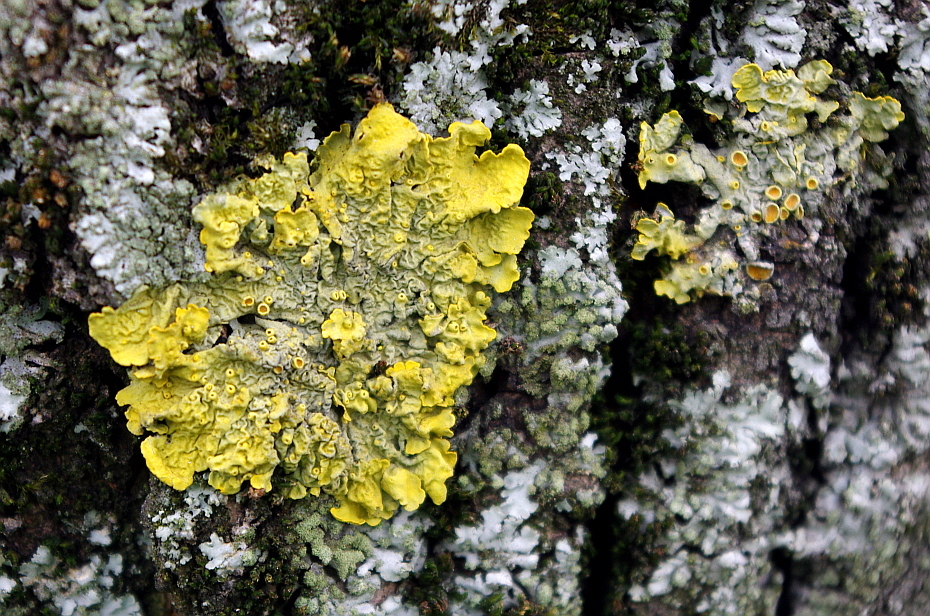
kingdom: Fungi
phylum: Ascomycota
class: Lecanoromycetes
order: Teloschistales
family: Teloschistaceae
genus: Xanthoria
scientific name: Xanthoria parietina
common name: Common orange lichen
